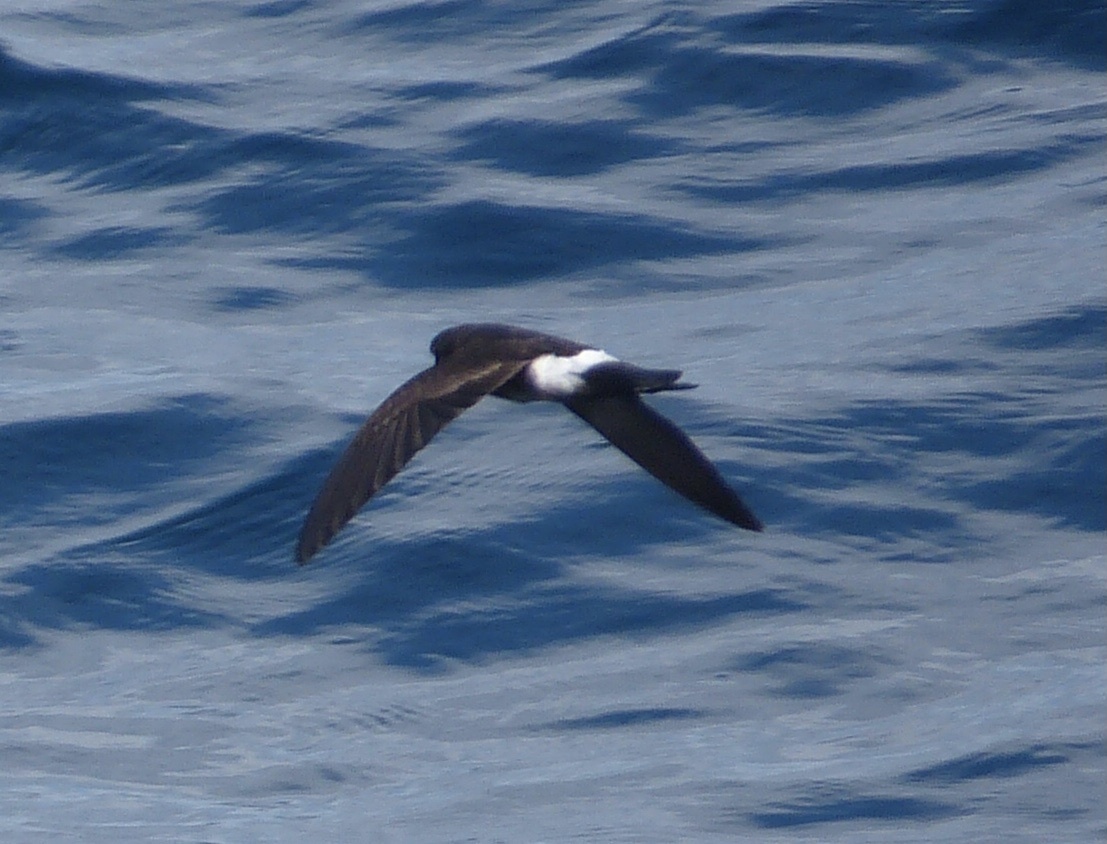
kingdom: Animalia
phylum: Chordata
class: Aves
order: Procellariiformes
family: Hydrobatidae
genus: Oceanites
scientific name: Oceanites gracilis
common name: Elliot's storm-petrel
